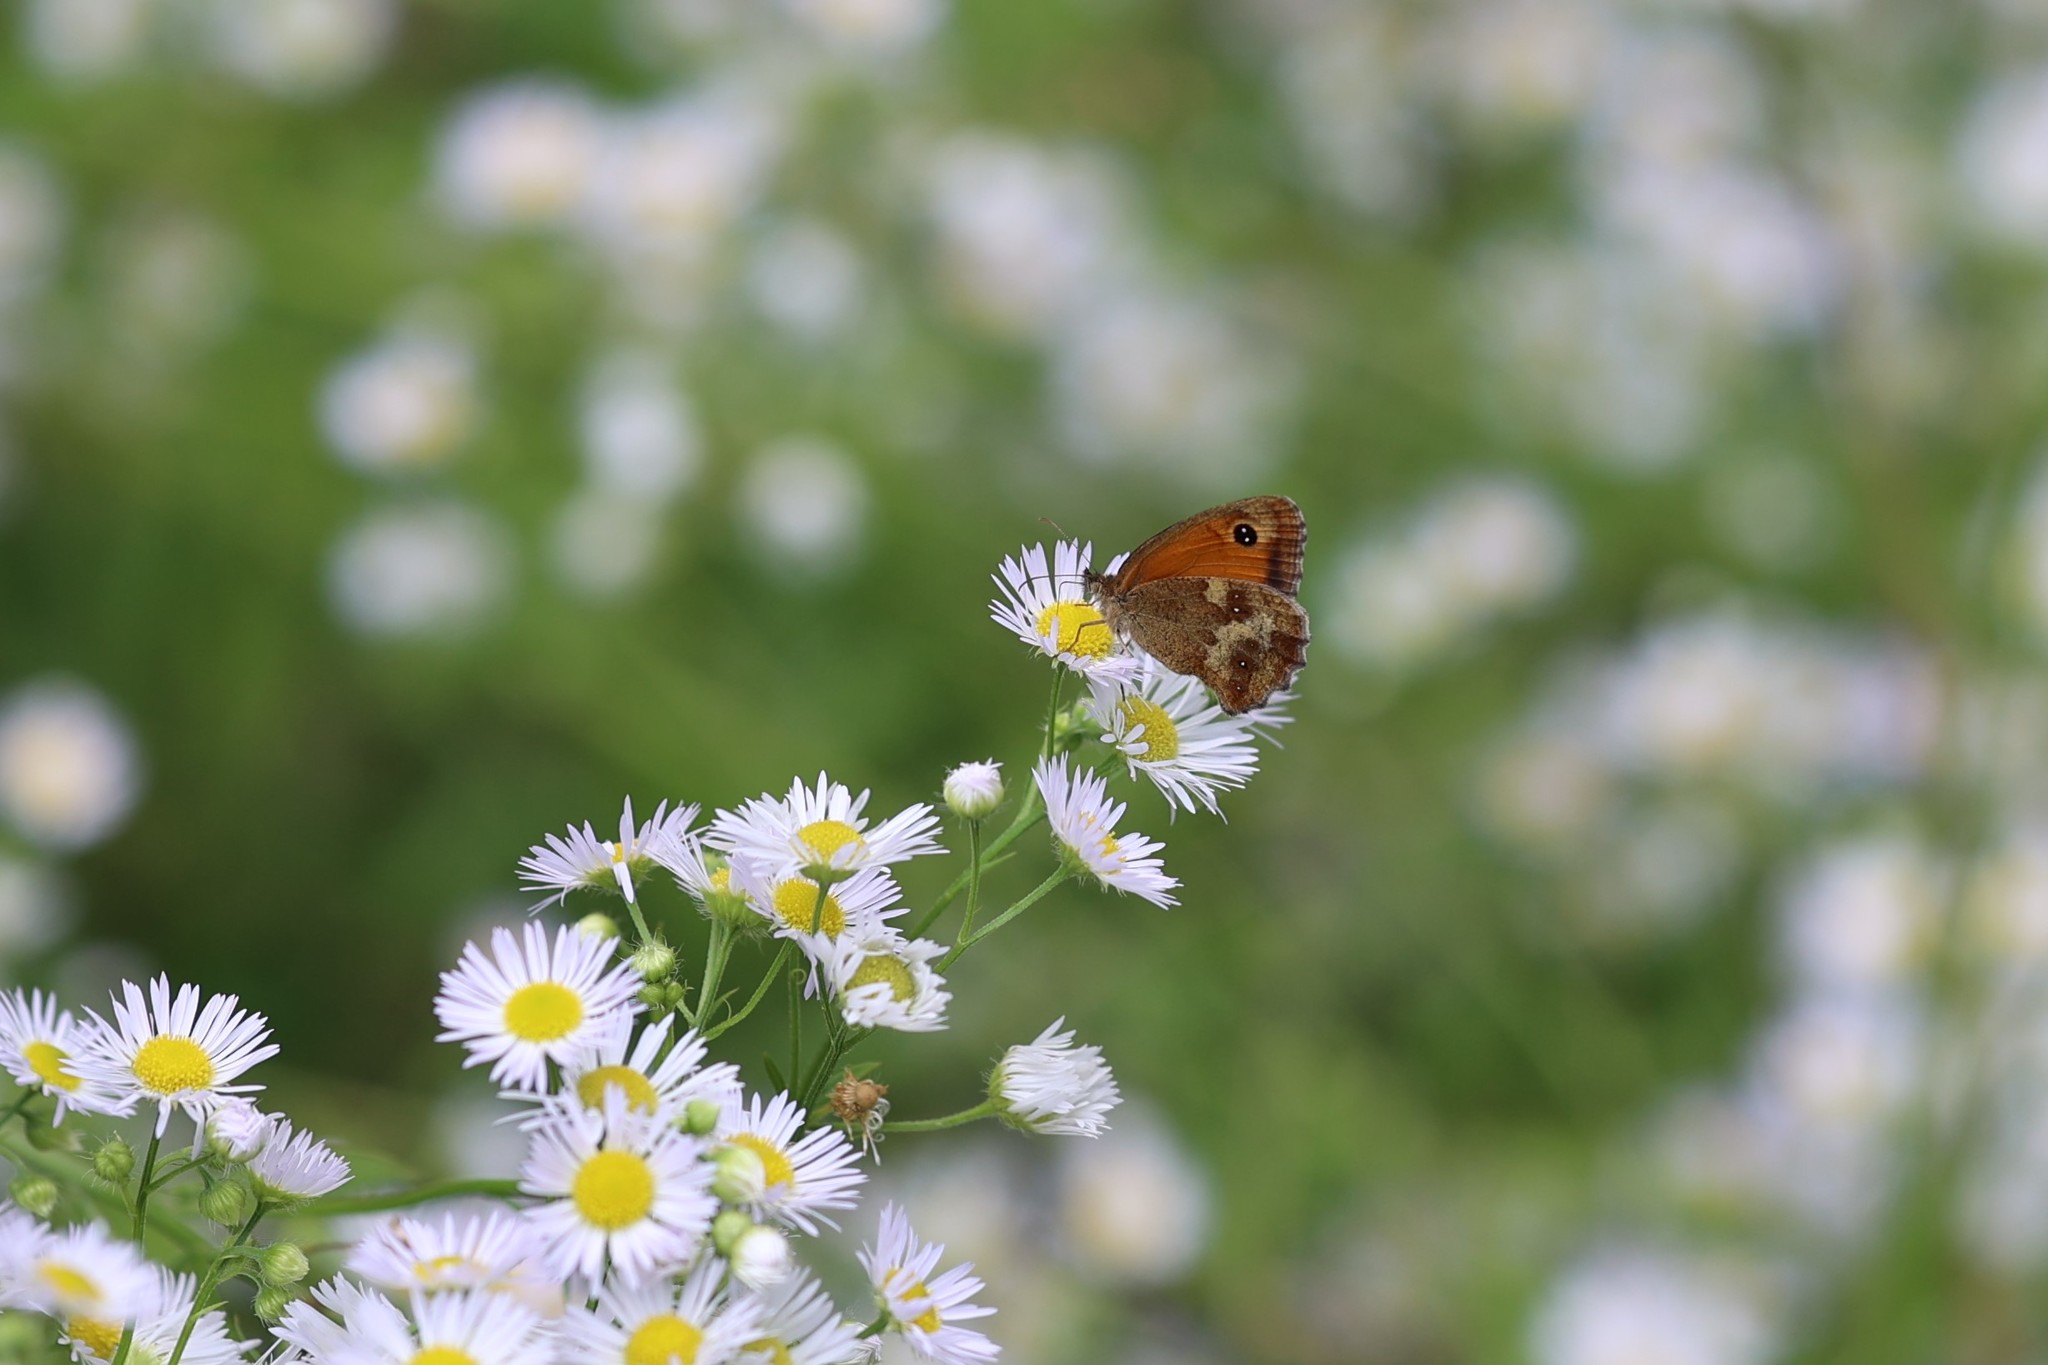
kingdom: Animalia
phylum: Arthropoda
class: Insecta
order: Lepidoptera
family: Nymphalidae
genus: Pyronia
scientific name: Pyronia tithonus
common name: Gatekeeper
